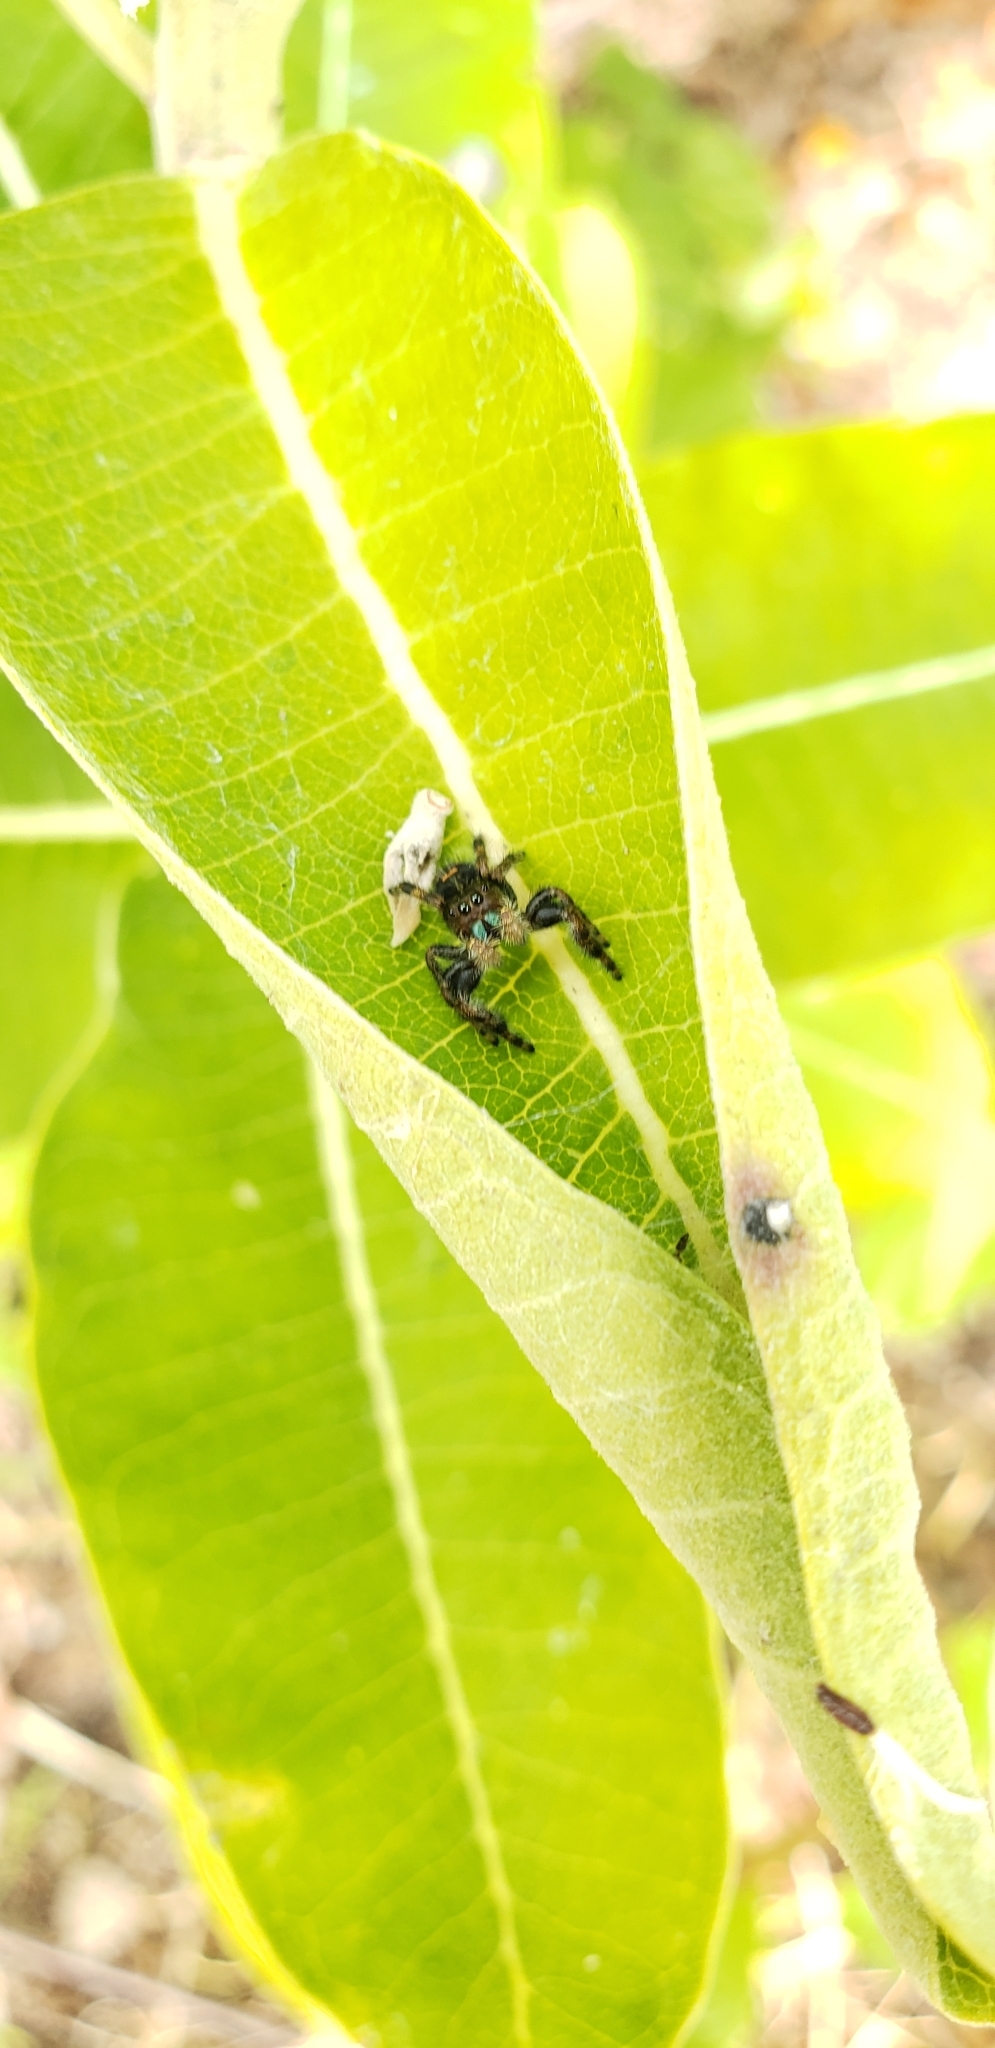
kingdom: Animalia
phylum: Arthropoda
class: Arachnida
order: Araneae
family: Salticidae
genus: Phidippus
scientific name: Phidippus audax
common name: Bold jumper
